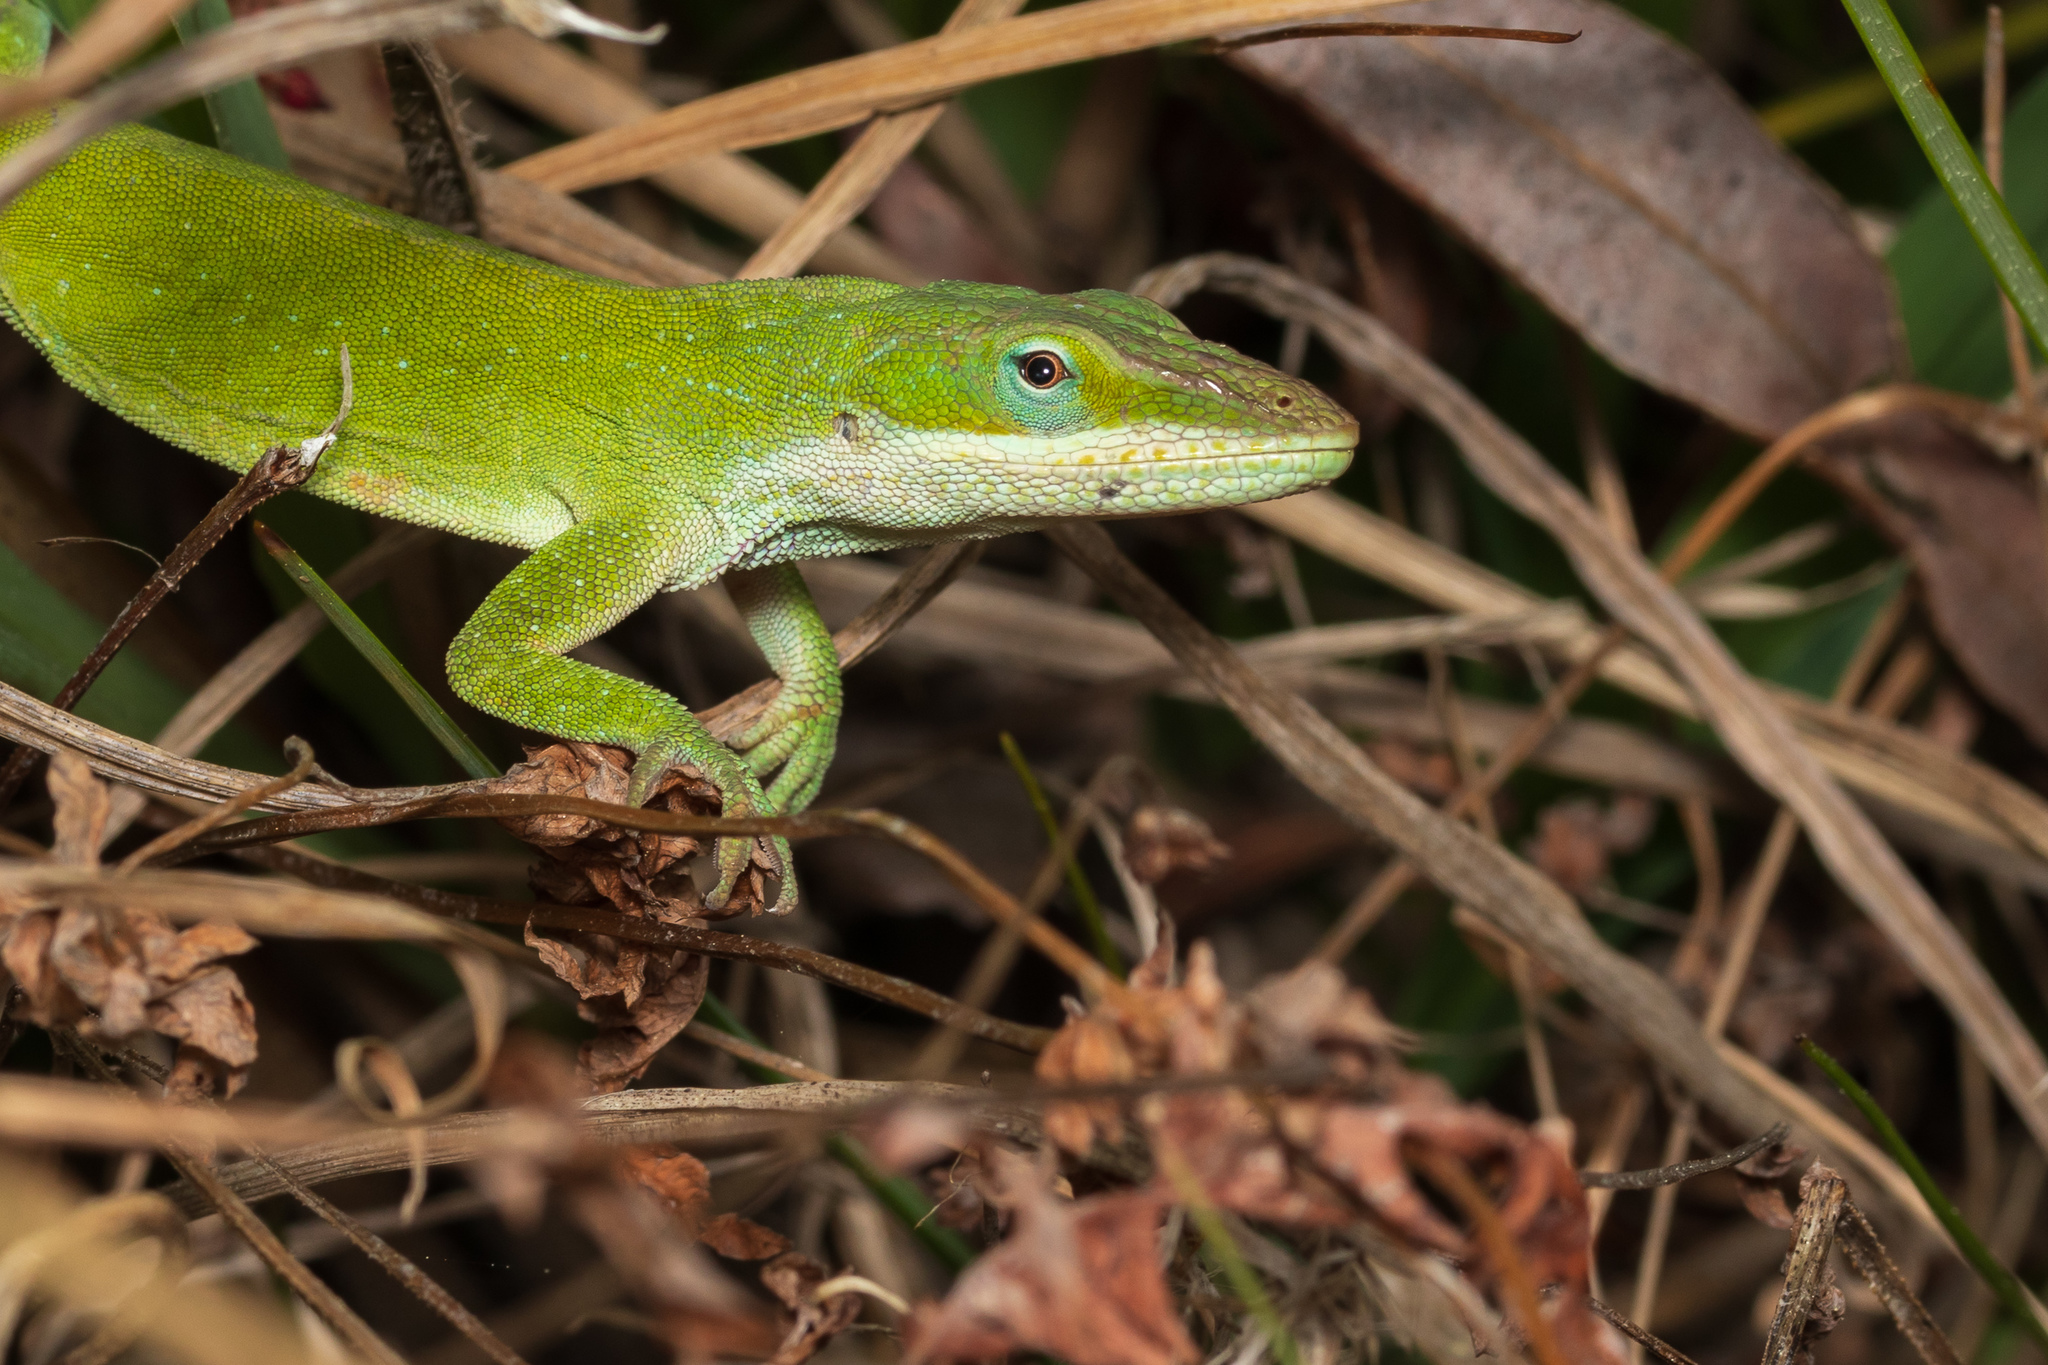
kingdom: Animalia
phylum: Chordata
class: Squamata
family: Dactyloidae
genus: Anolis
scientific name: Anolis carolinensis
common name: Green anole
